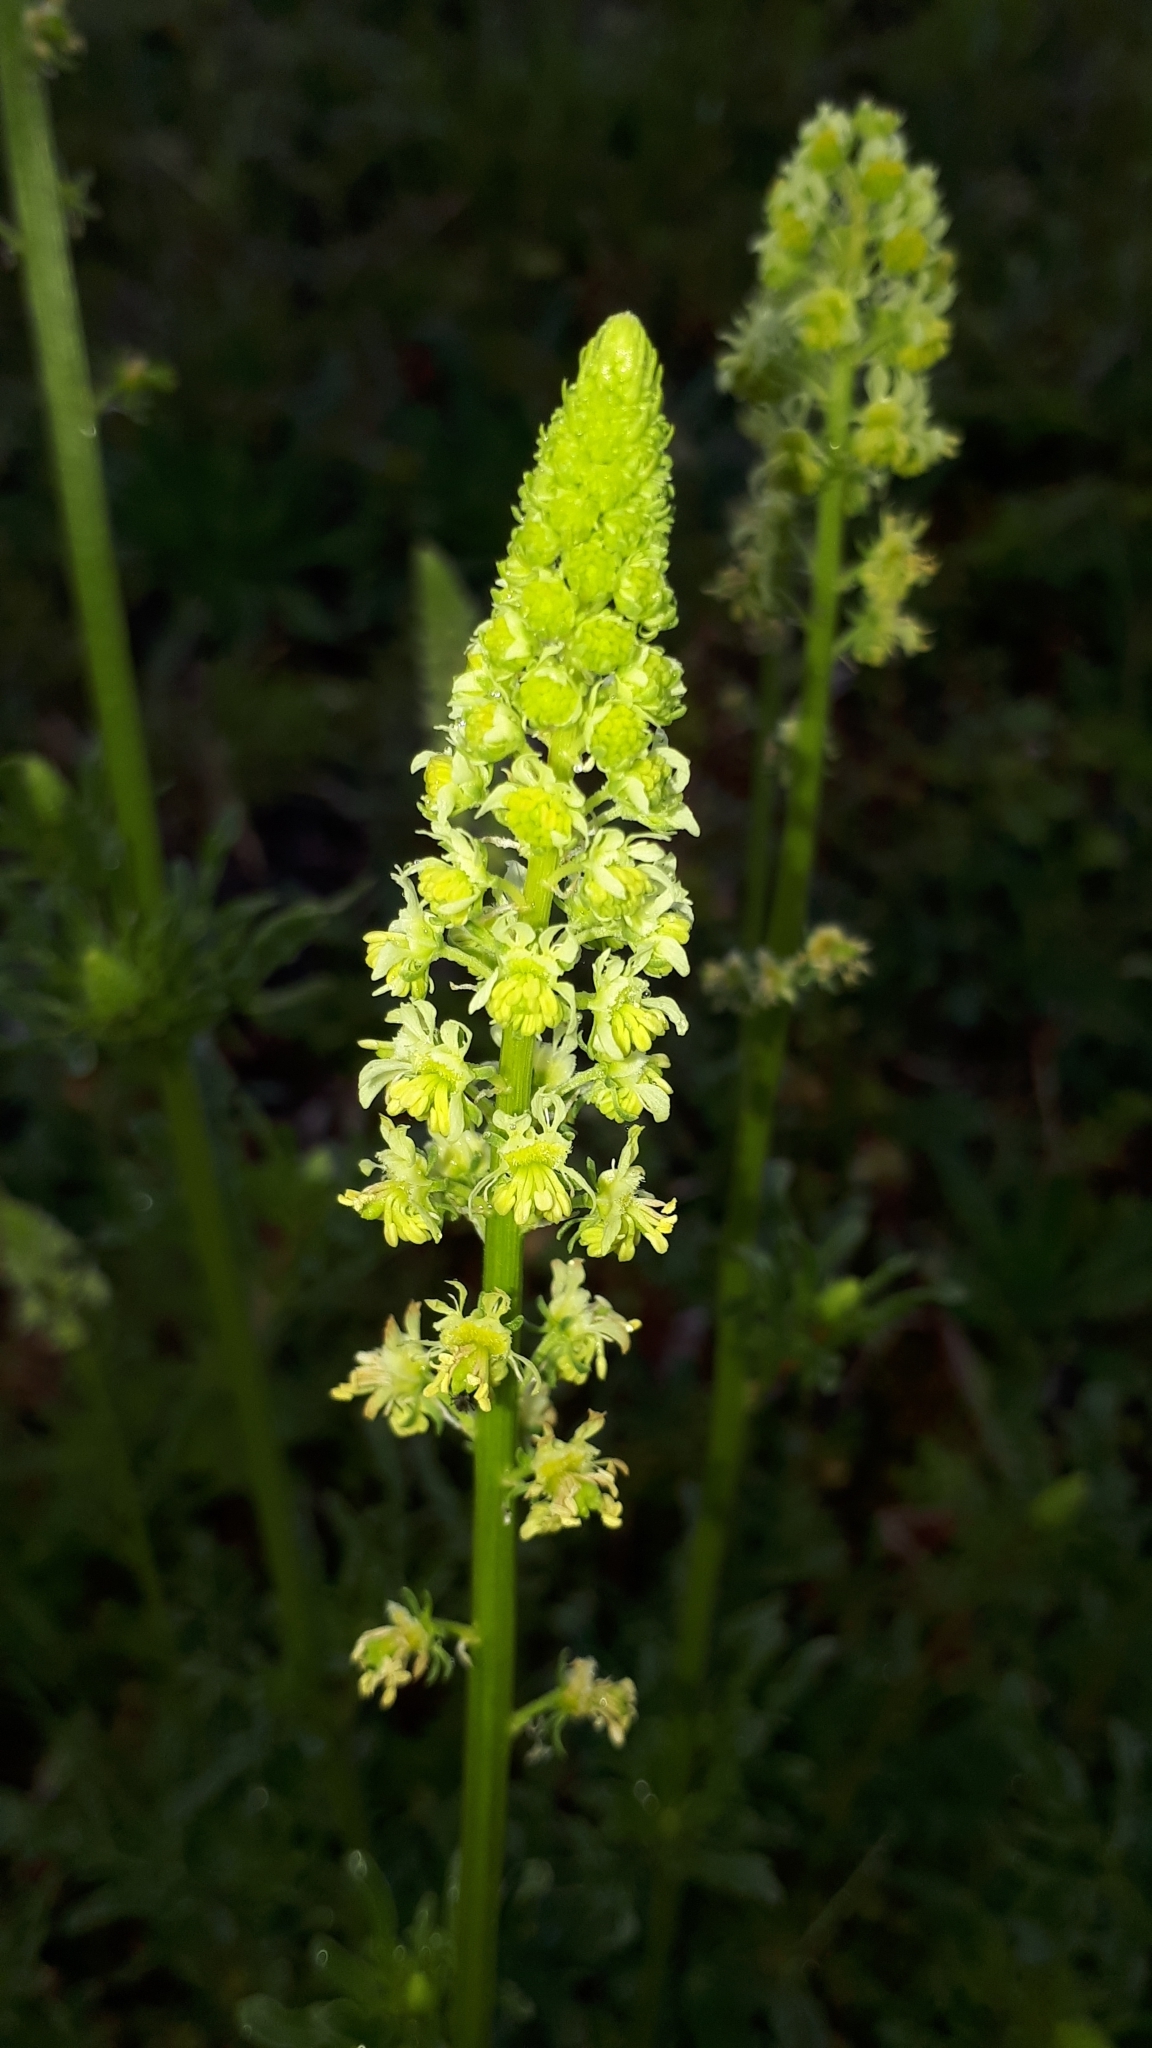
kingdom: Plantae
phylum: Tracheophyta
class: Magnoliopsida
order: Brassicales
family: Resedaceae
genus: Reseda
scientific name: Reseda lutea
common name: Wild mignonette
